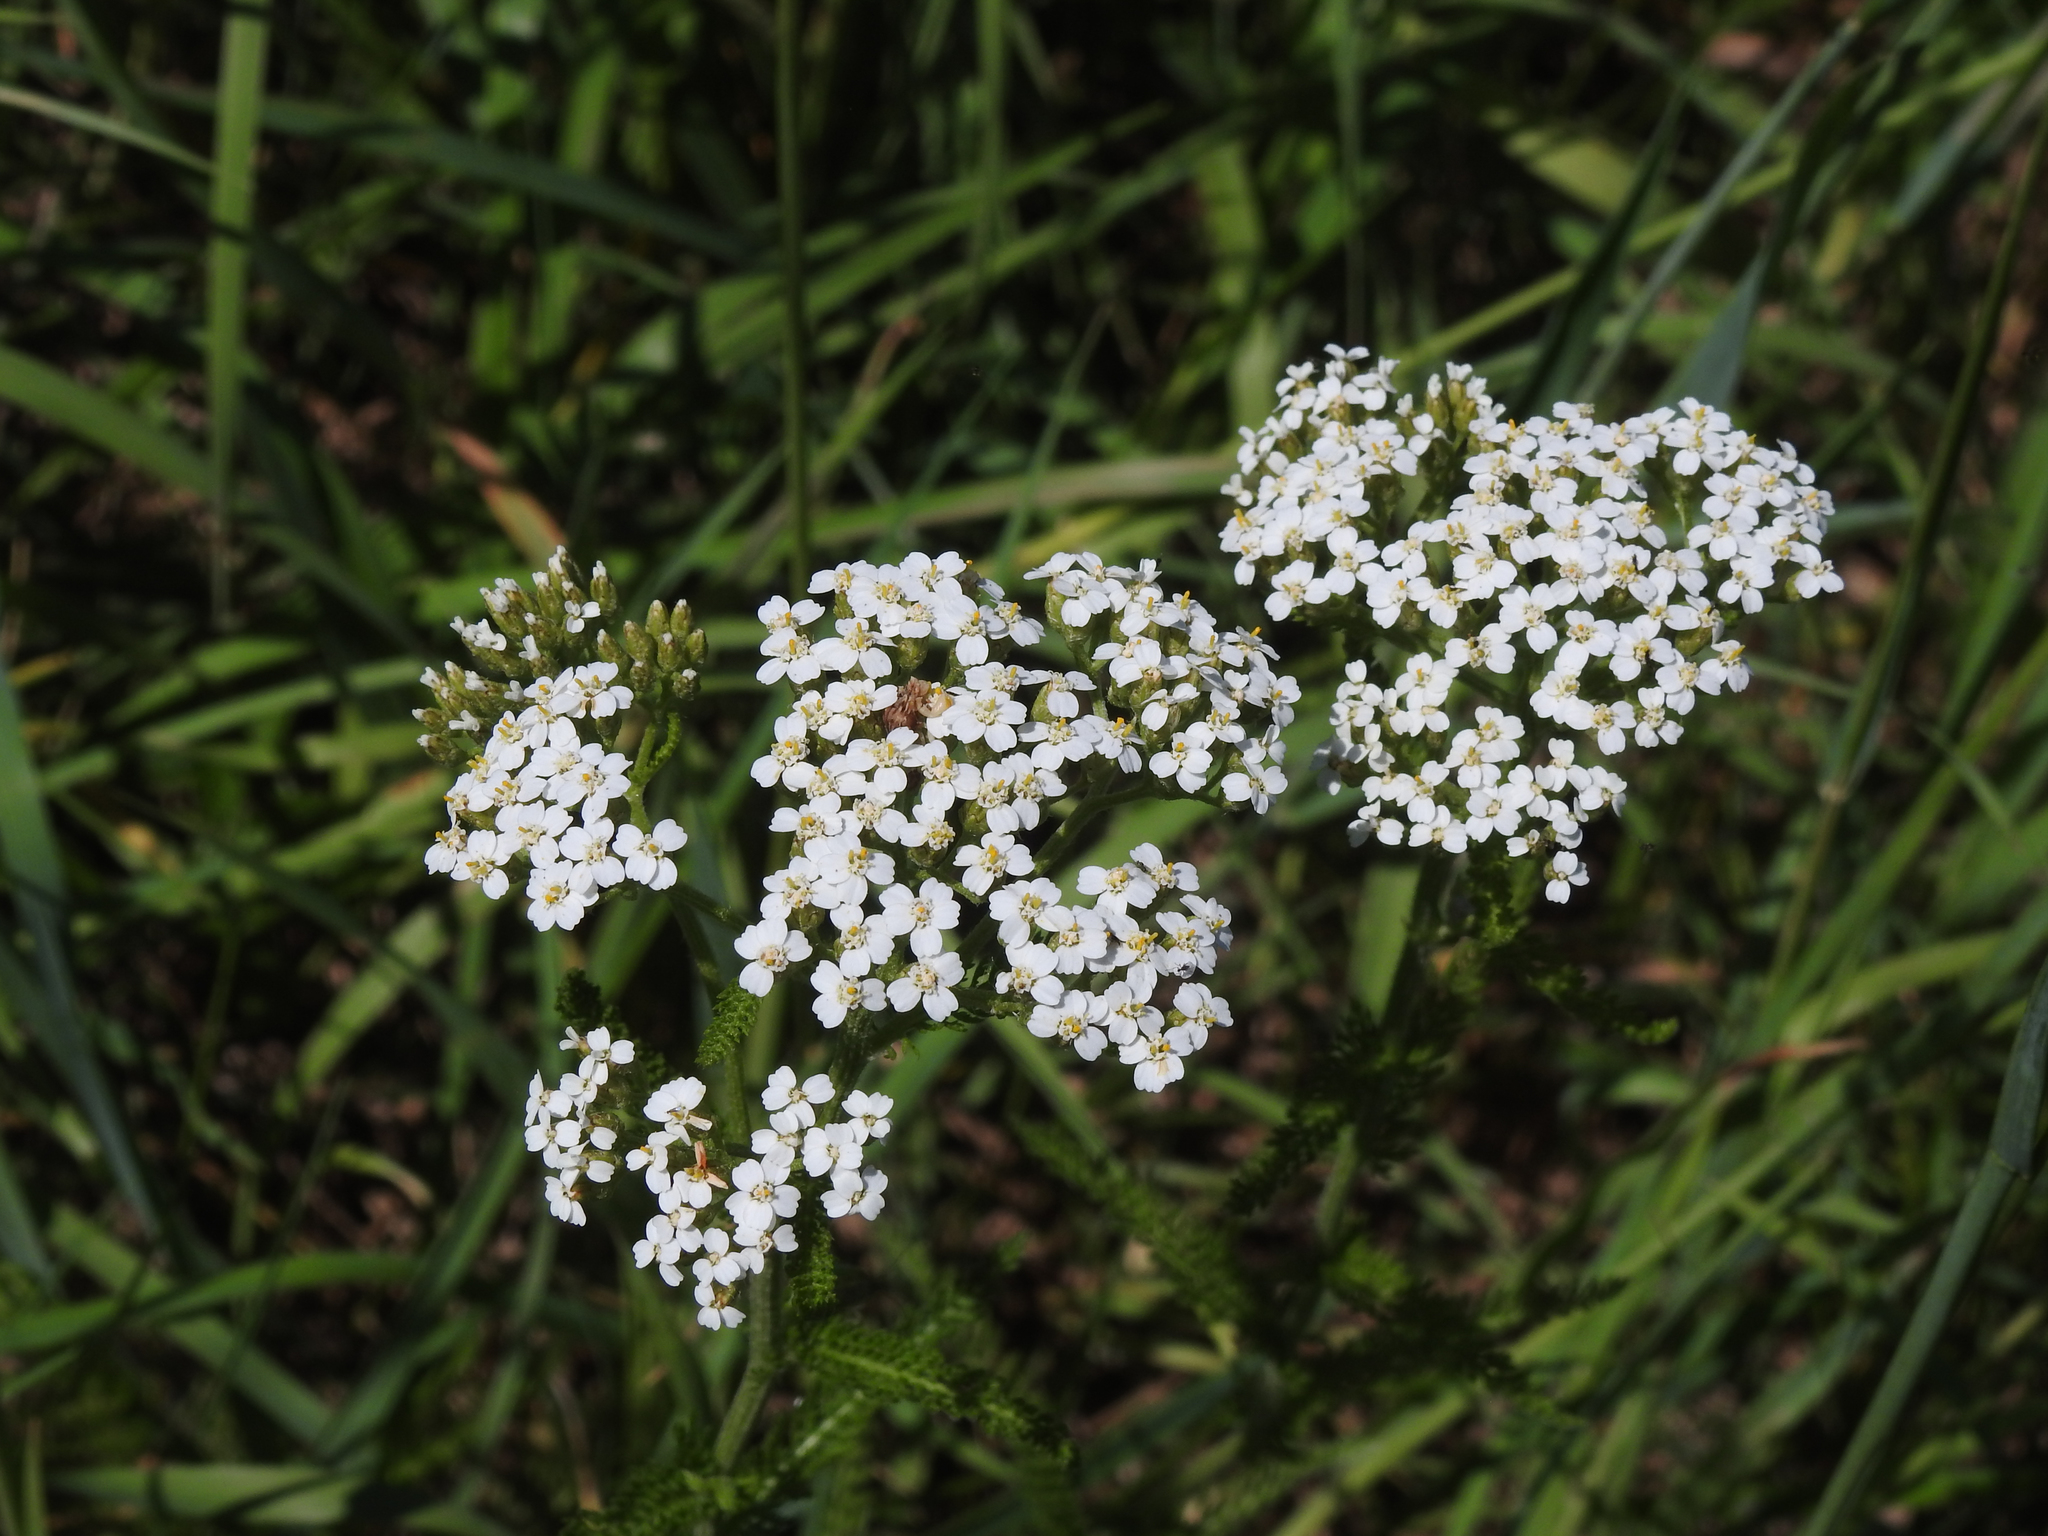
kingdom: Plantae
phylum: Tracheophyta
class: Magnoliopsida
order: Asterales
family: Asteraceae
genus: Achillea
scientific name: Achillea millefolium
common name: Yarrow
